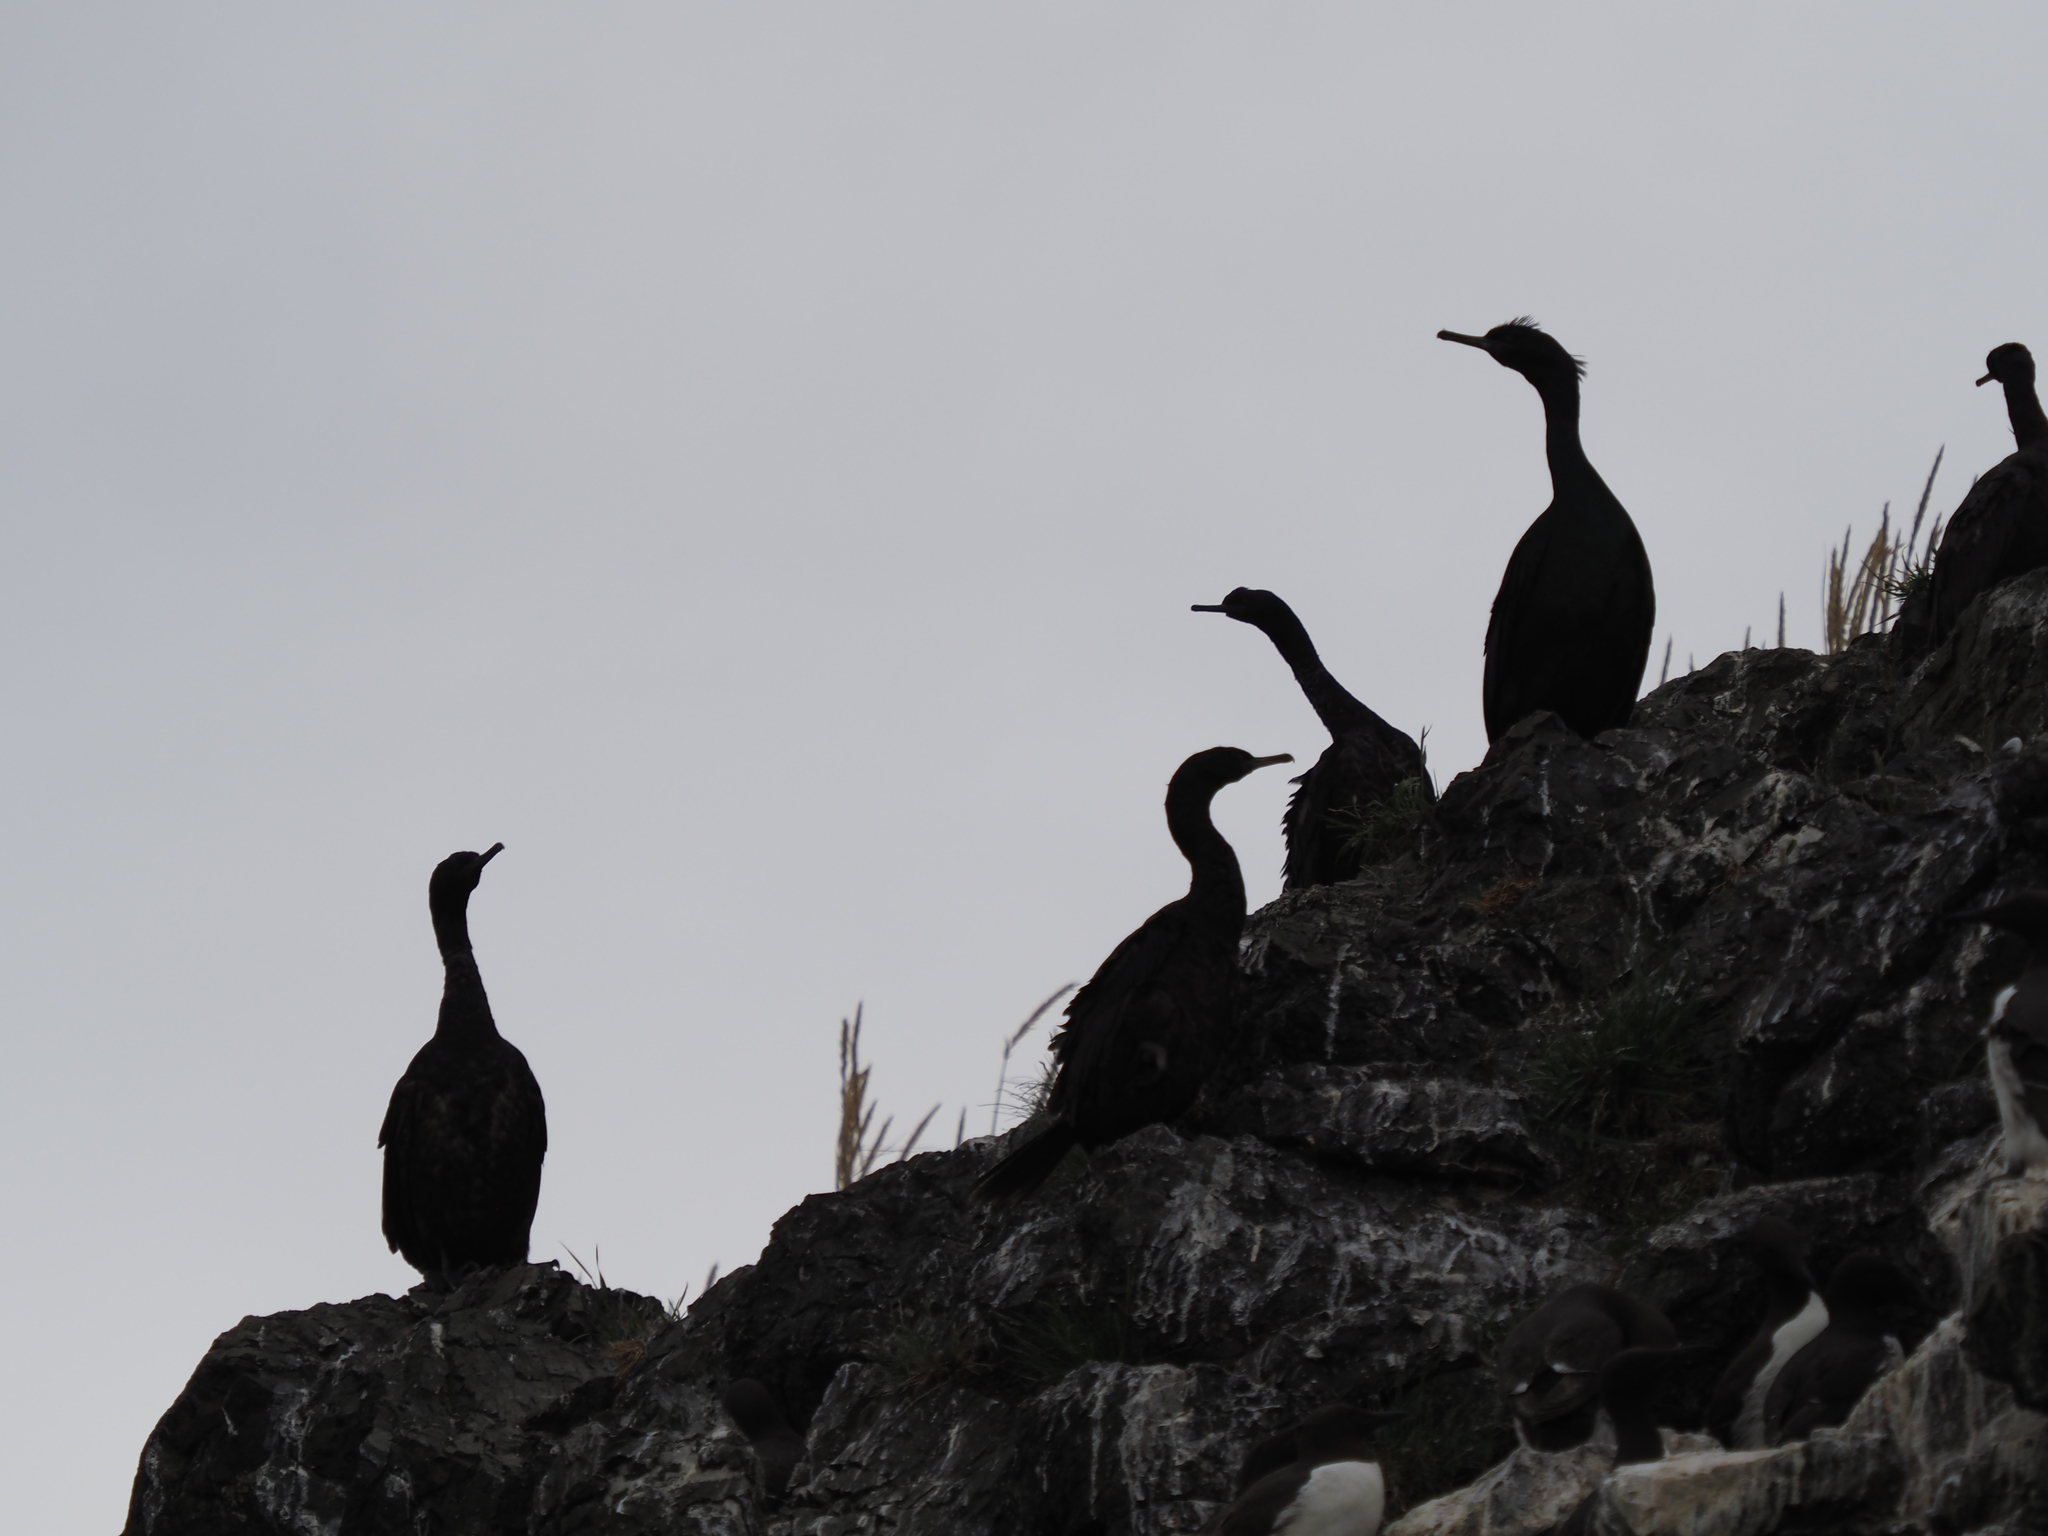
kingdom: Animalia
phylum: Chordata
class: Aves
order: Suliformes
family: Phalacrocoracidae
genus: Phalacrocorax
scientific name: Phalacrocorax pelagicus
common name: Pelagic cormorant
